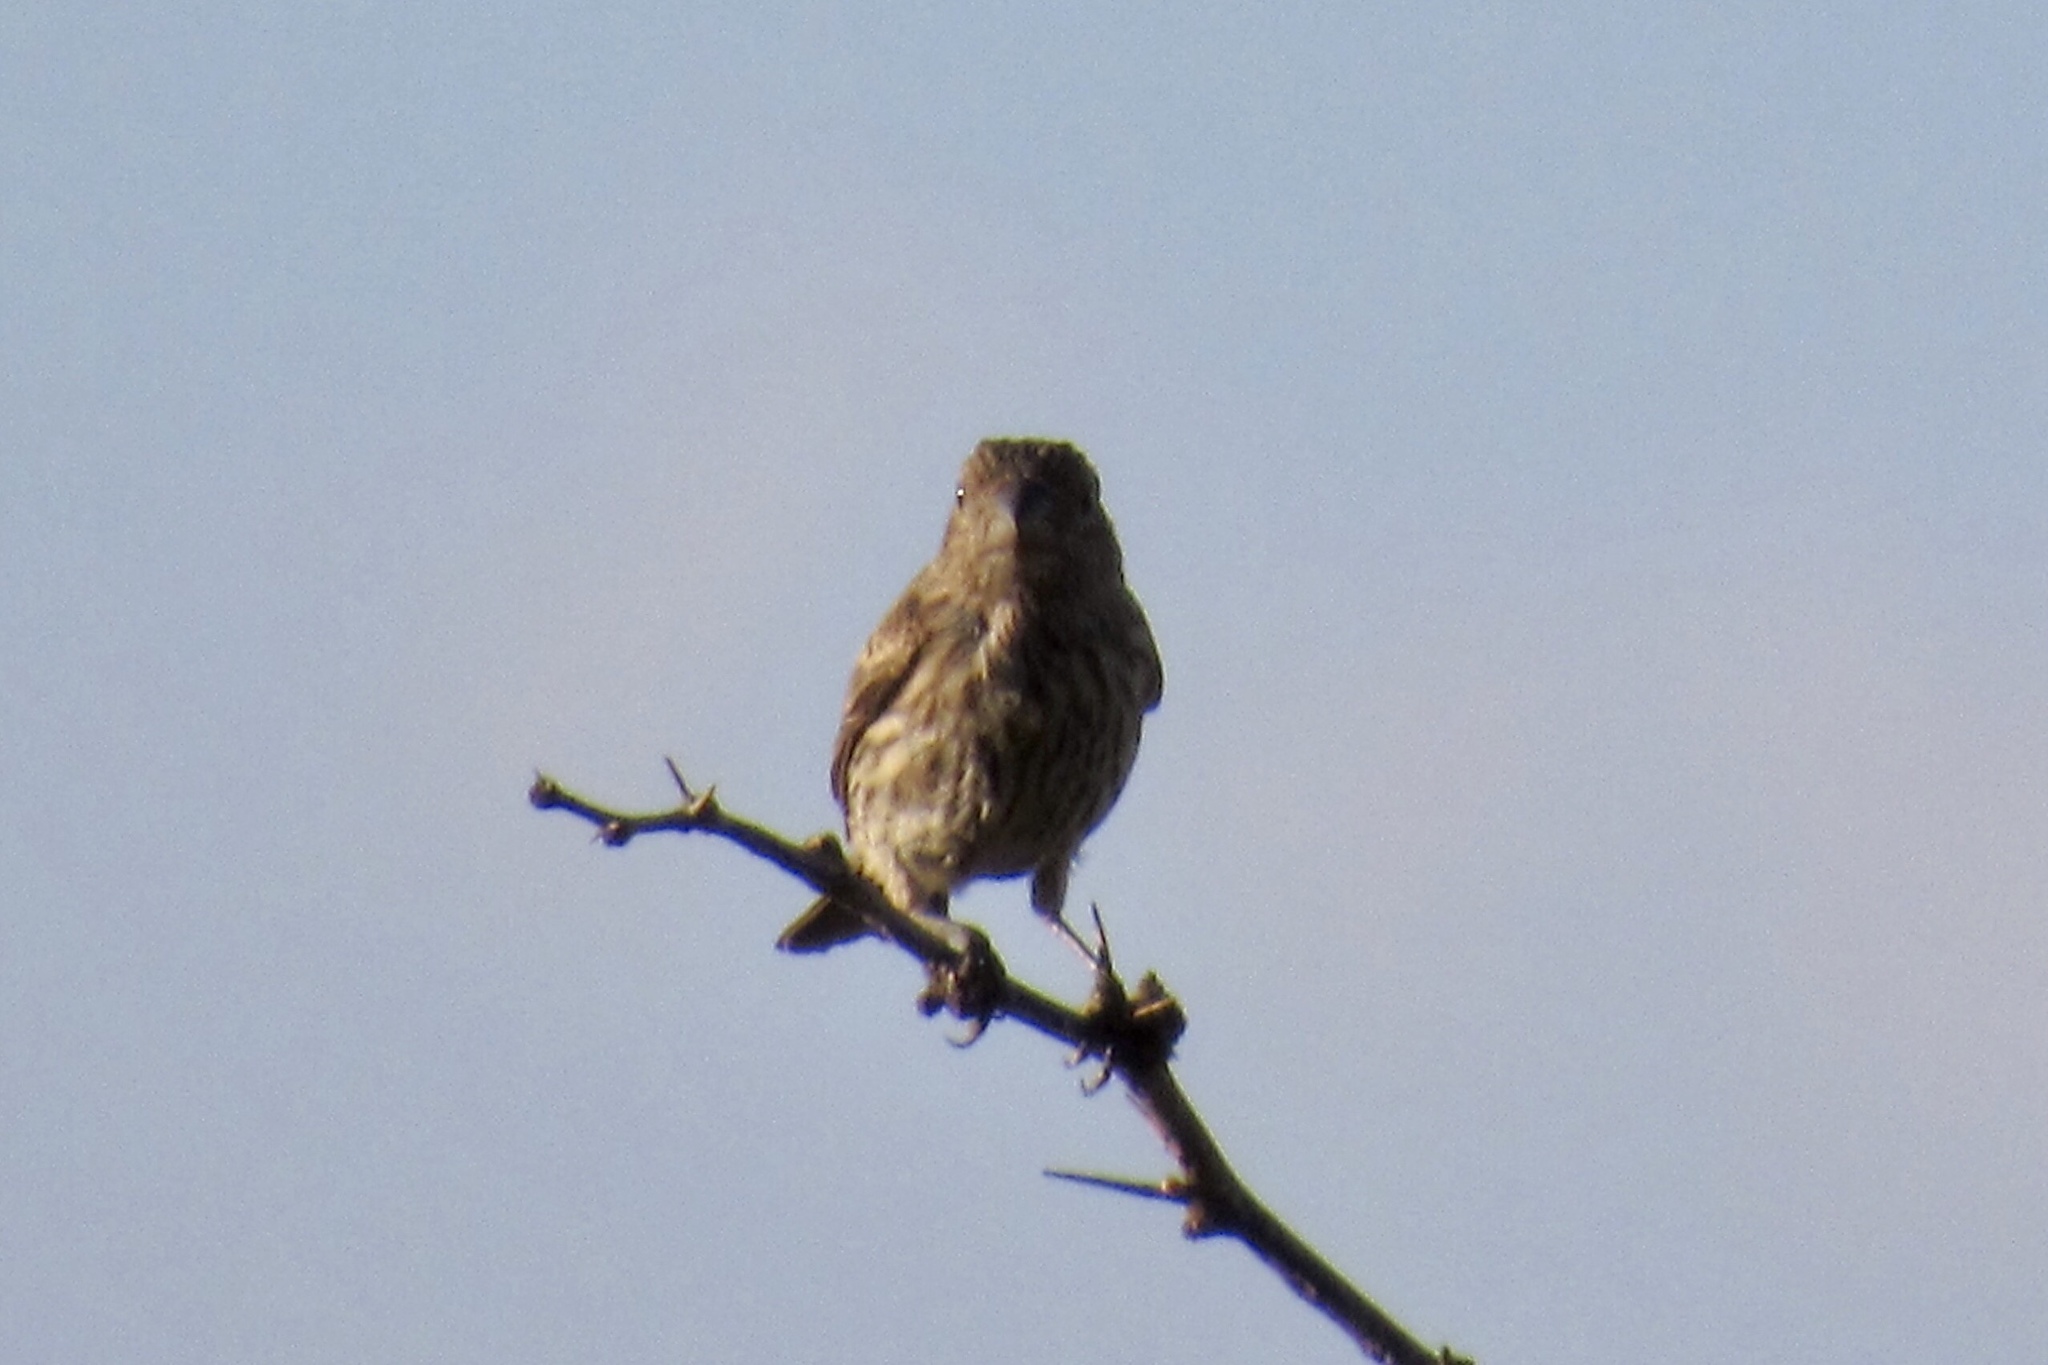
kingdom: Animalia
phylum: Chordata
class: Aves
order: Passeriformes
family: Fringillidae
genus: Haemorhous
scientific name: Haemorhous mexicanus
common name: House finch
